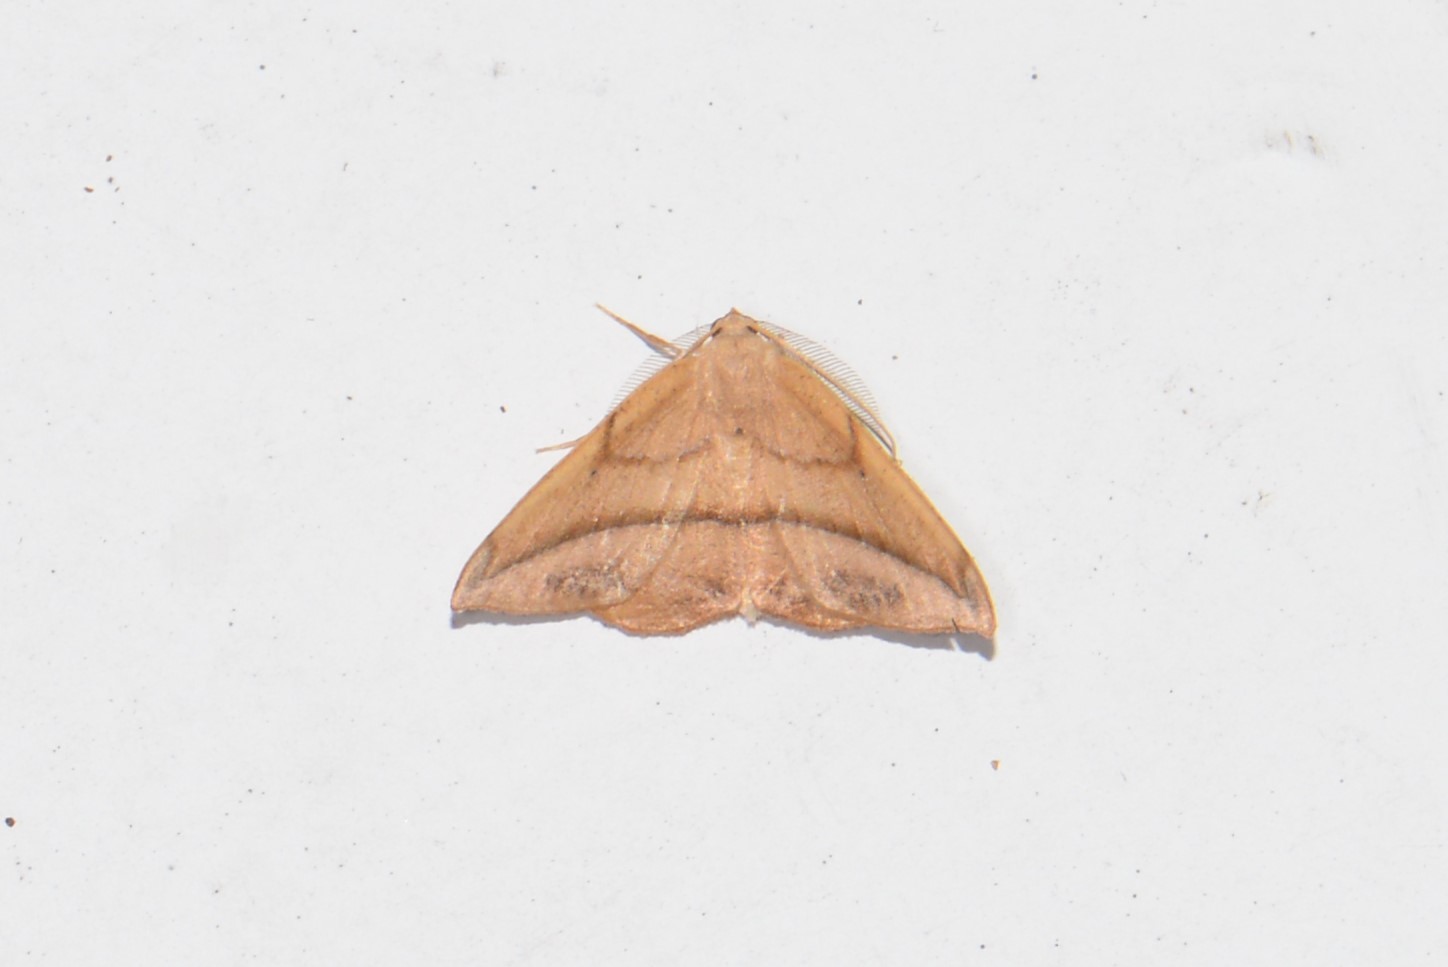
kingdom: Animalia
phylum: Arthropoda
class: Insecta
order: Lepidoptera
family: Geometridae
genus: Patalene
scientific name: Patalene olyzonaria
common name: Juniper geometer moth
